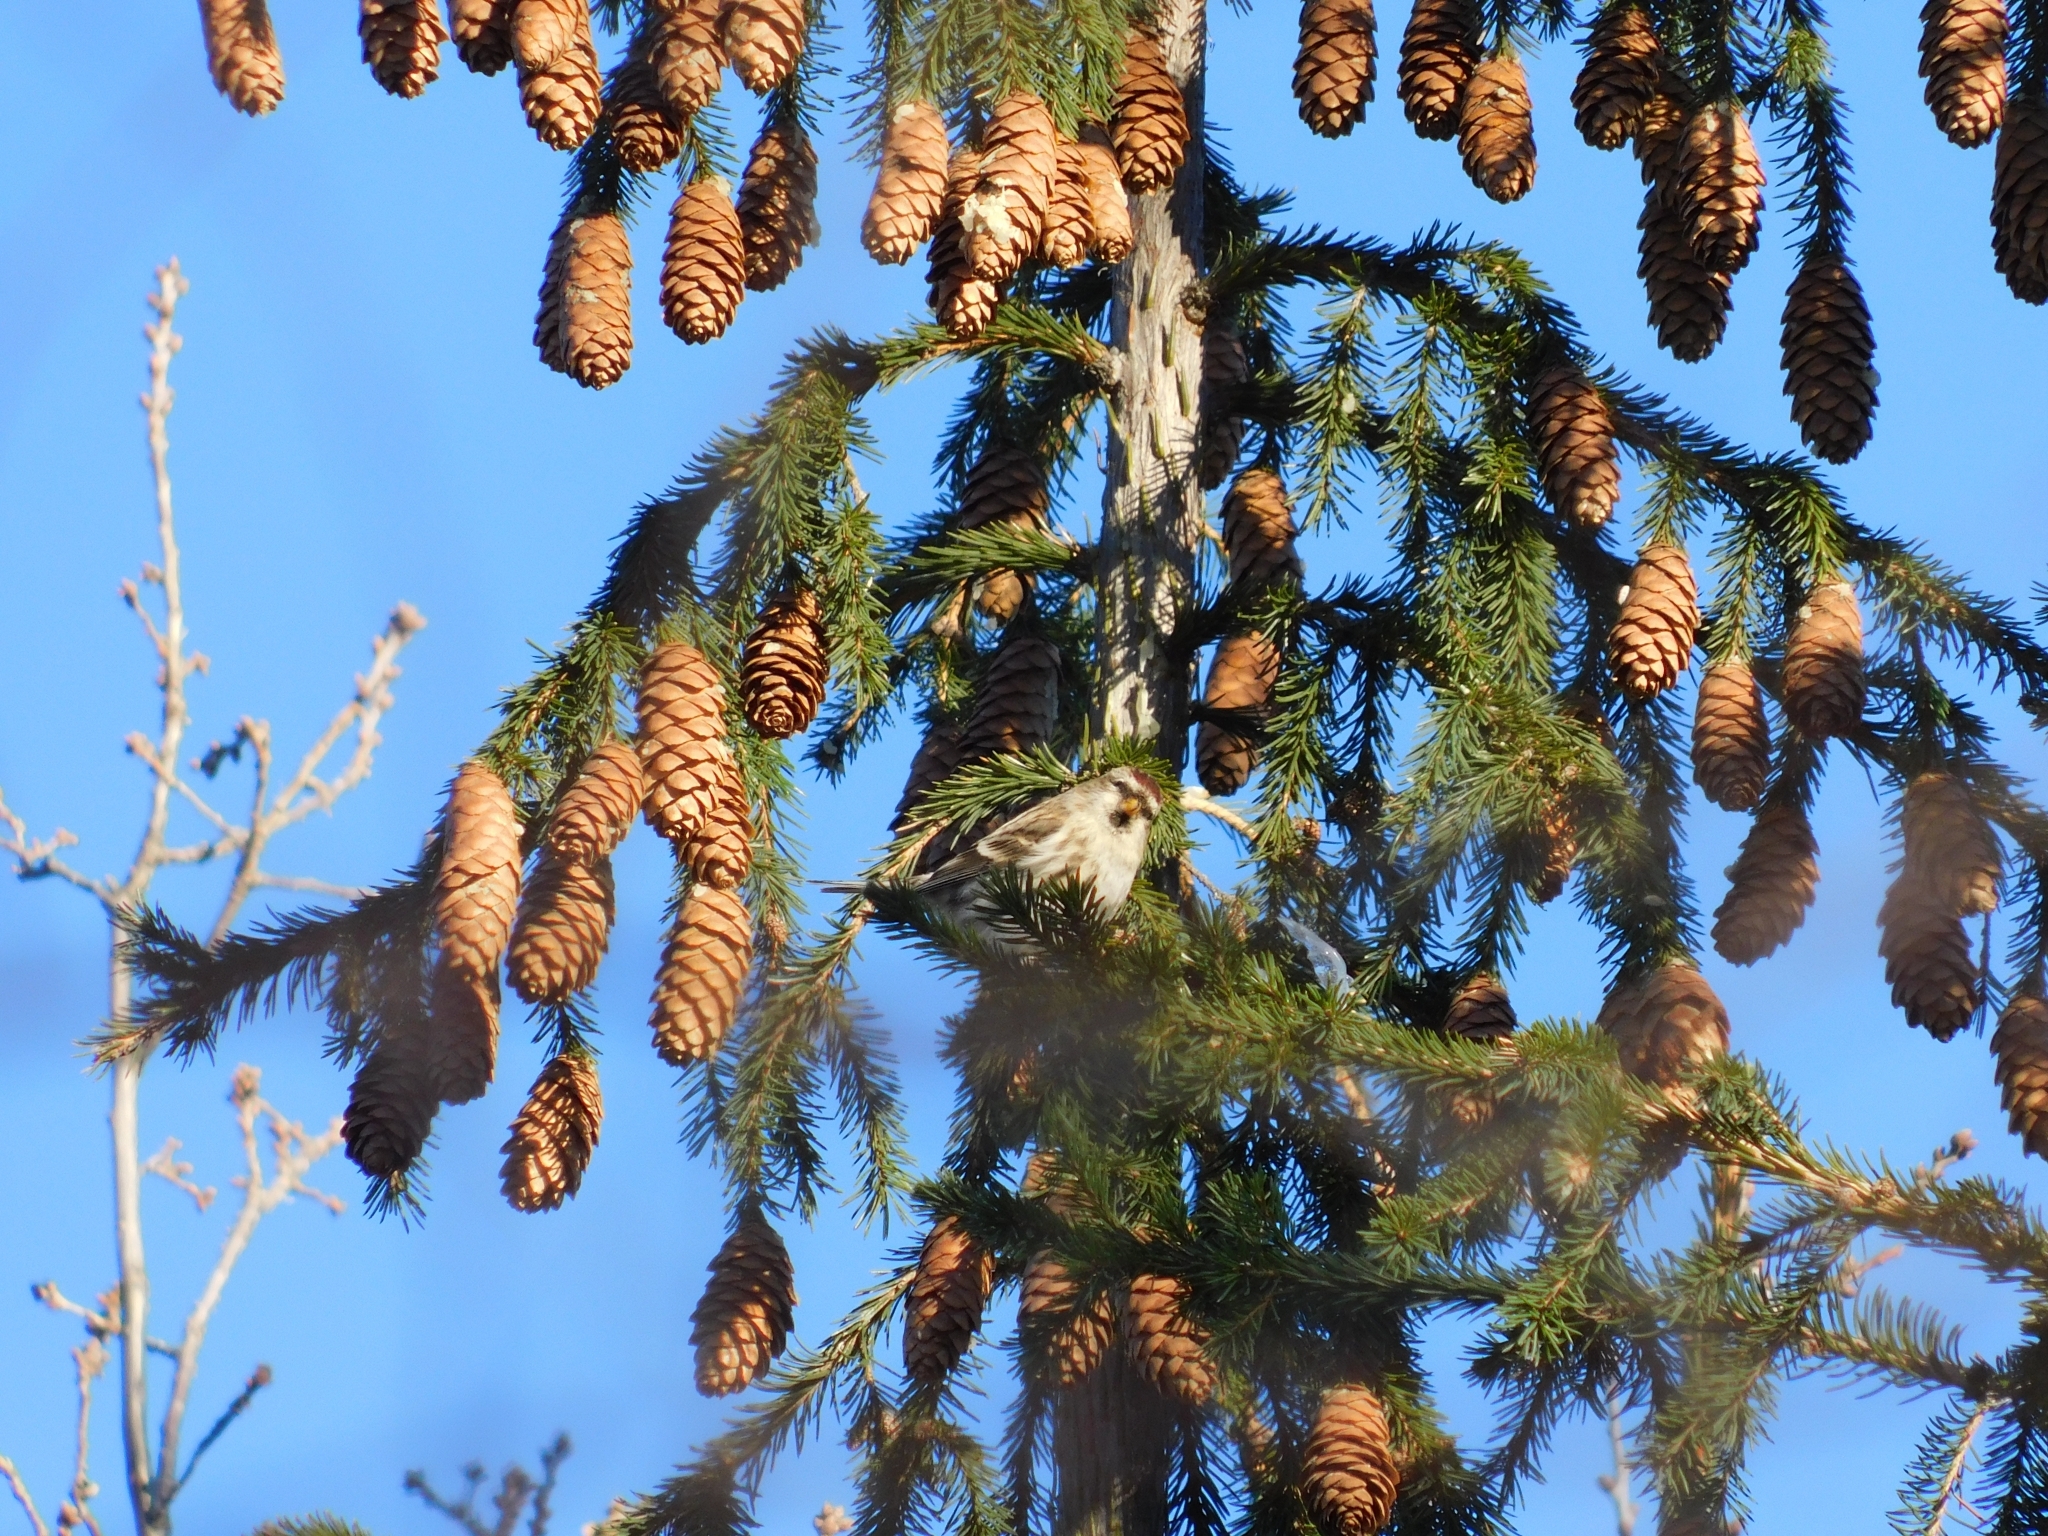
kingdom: Animalia
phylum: Chordata
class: Aves
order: Passeriformes
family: Fringillidae
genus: Acanthis
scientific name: Acanthis flammea
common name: Common redpoll
